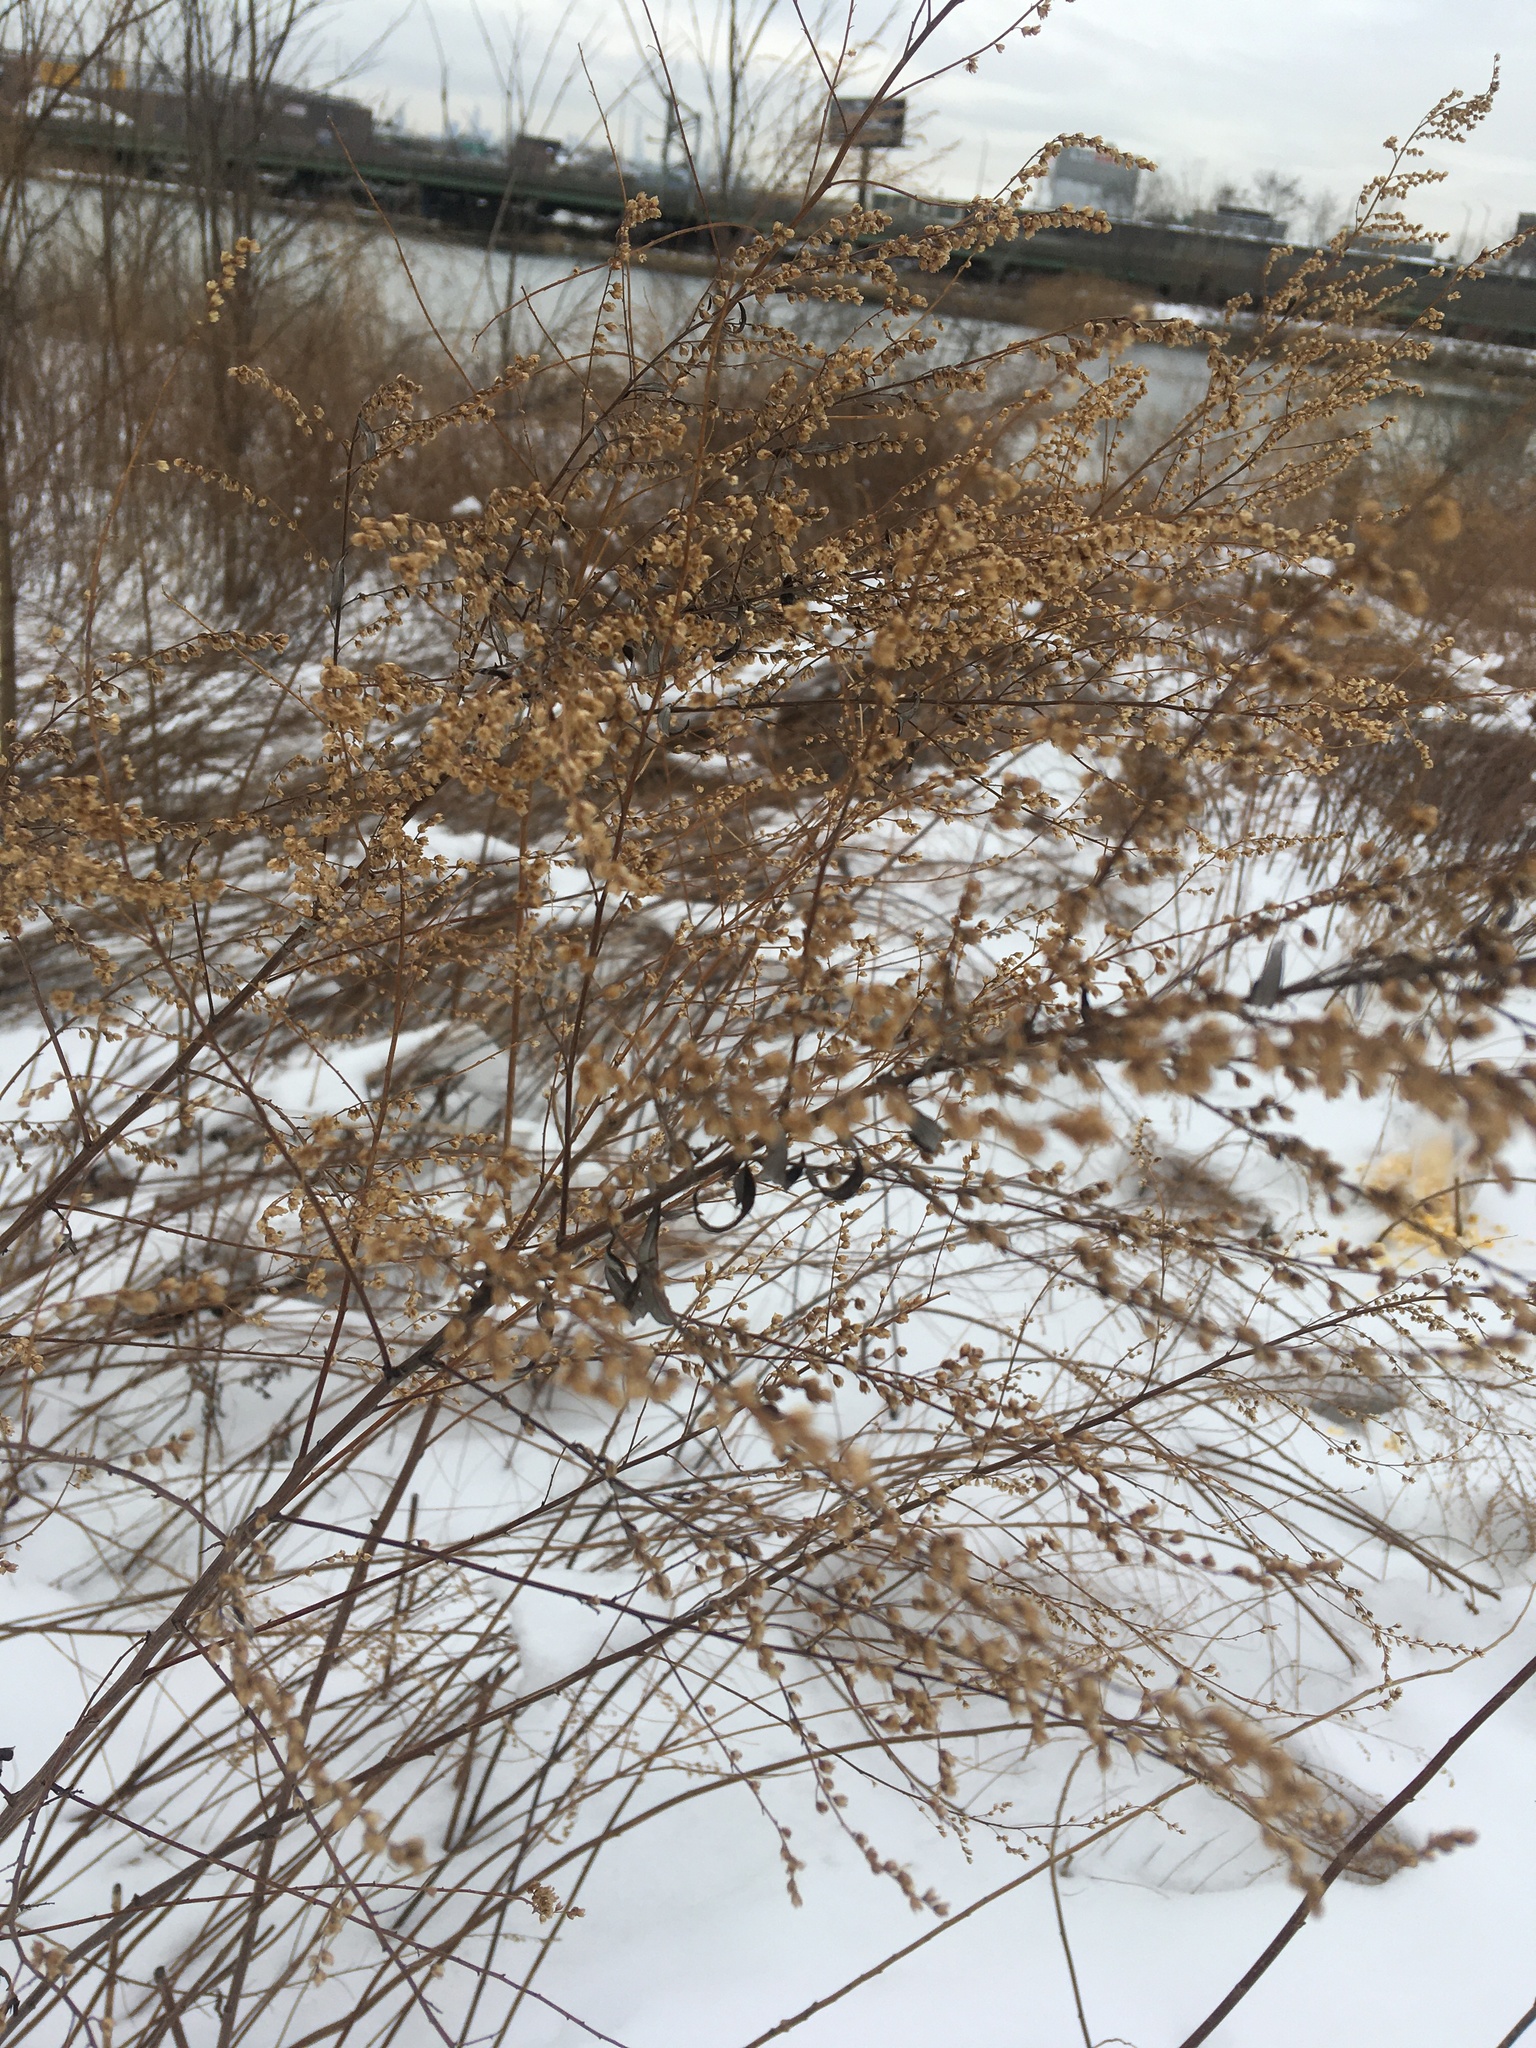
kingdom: Plantae
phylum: Tracheophyta
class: Magnoliopsida
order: Asterales
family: Asteraceae
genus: Artemisia
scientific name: Artemisia vulgaris
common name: Mugwort
